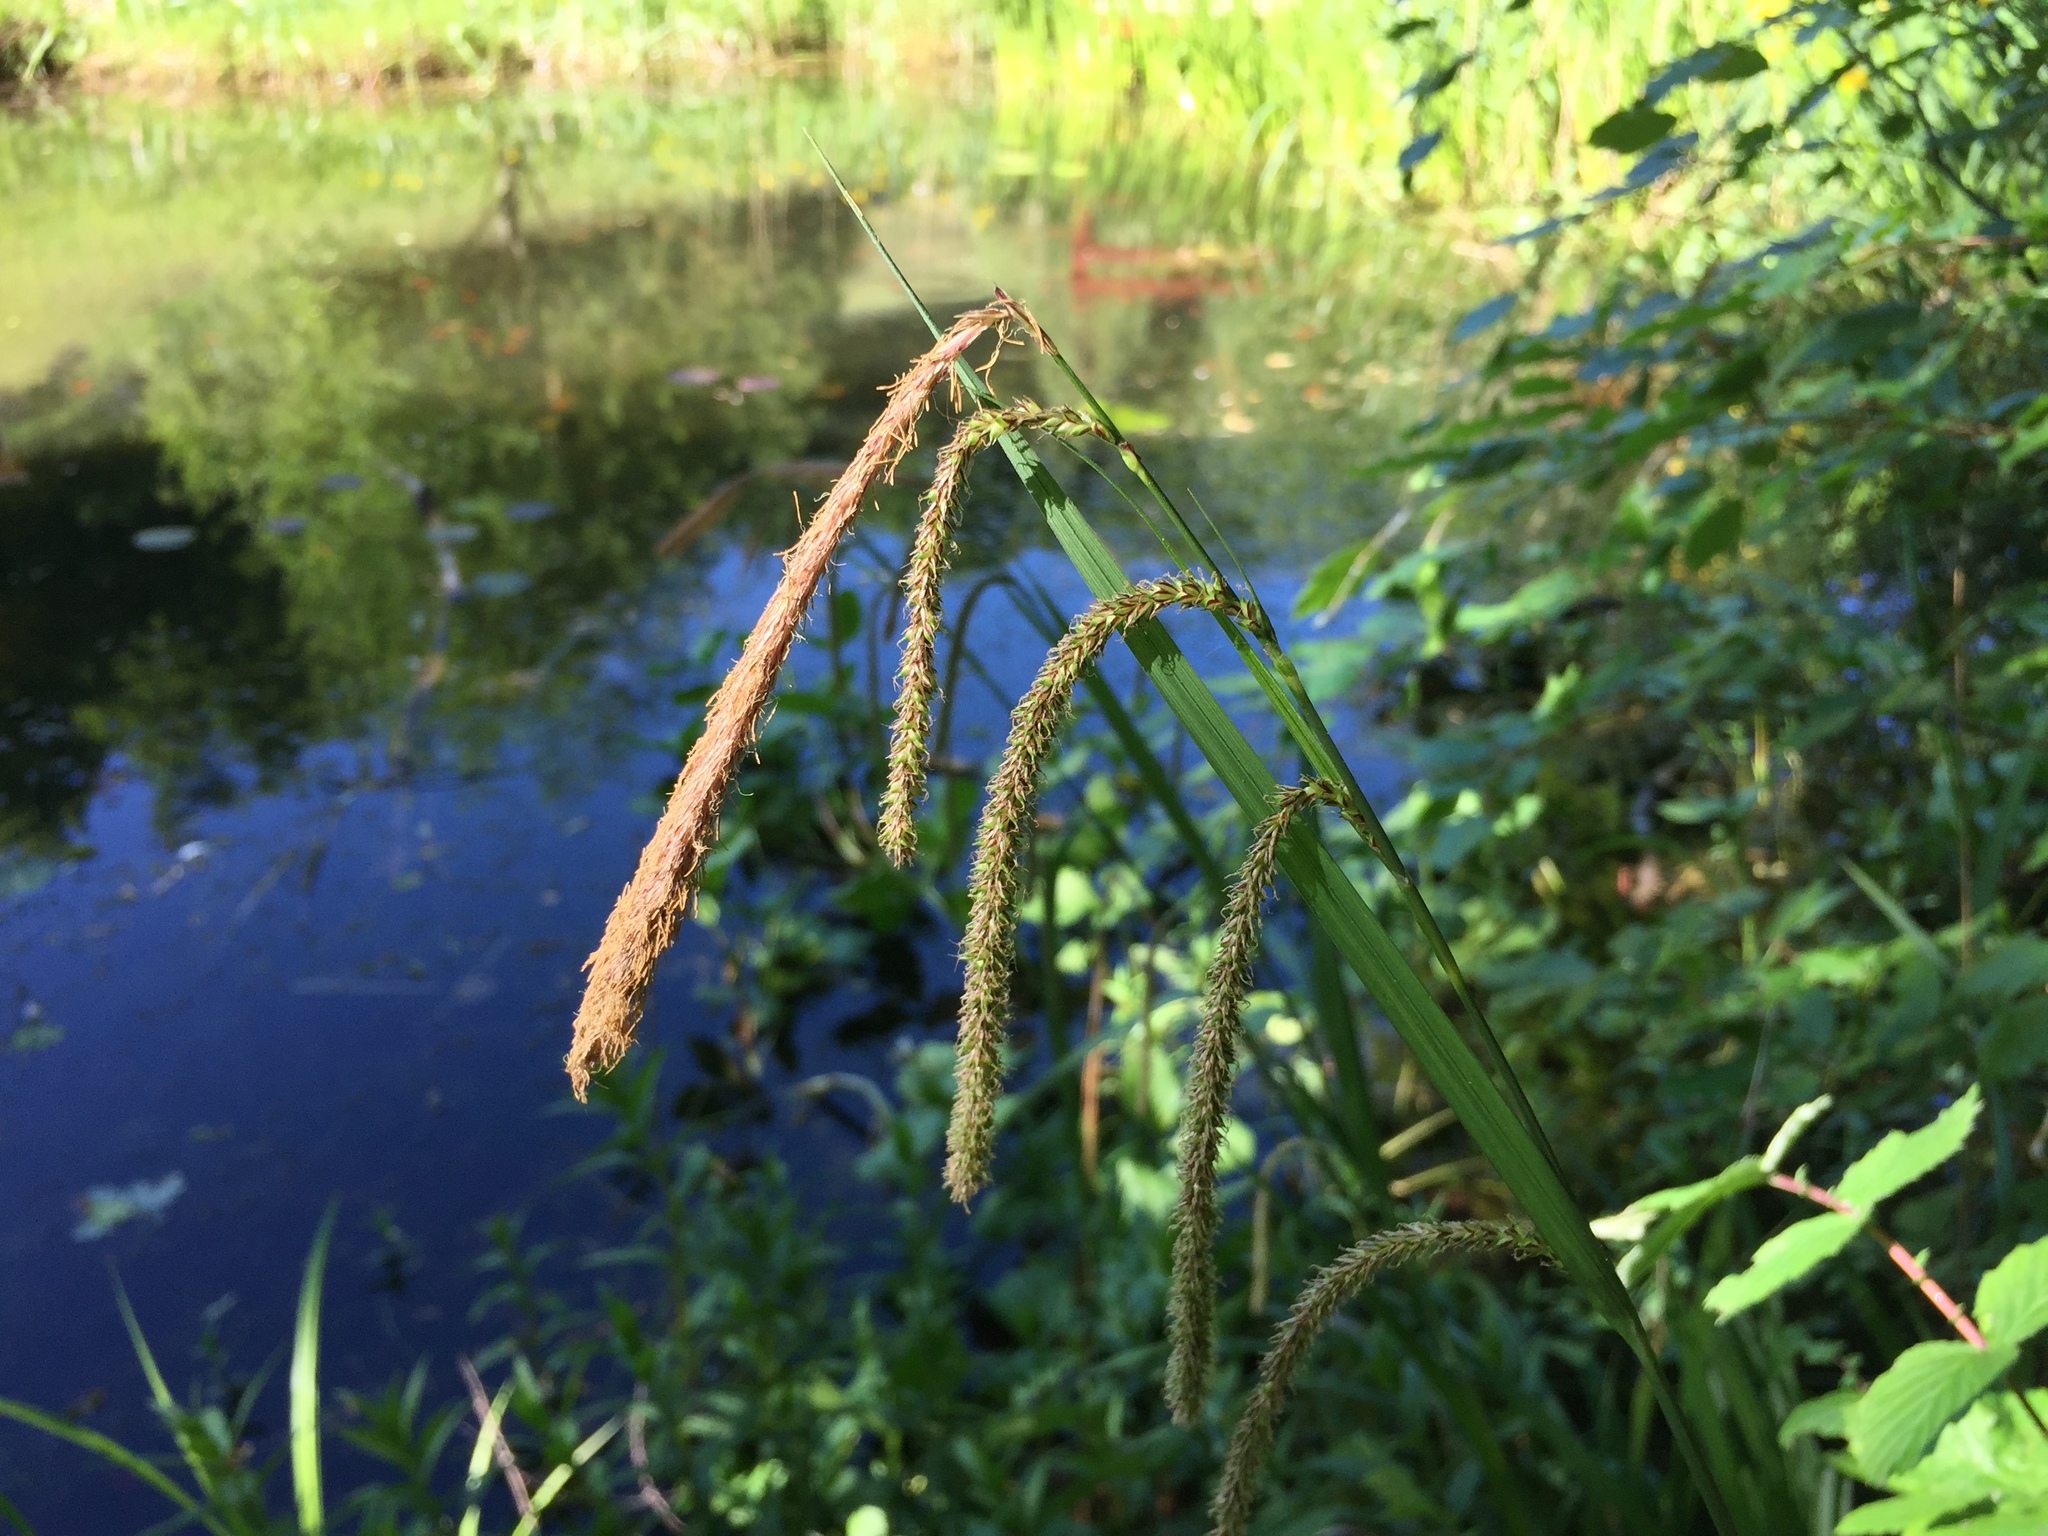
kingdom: Plantae
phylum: Tracheophyta
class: Liliopsida
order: Poales
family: Cyperaceae
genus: Carex
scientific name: Carex pendula
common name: Pendulous sedge
